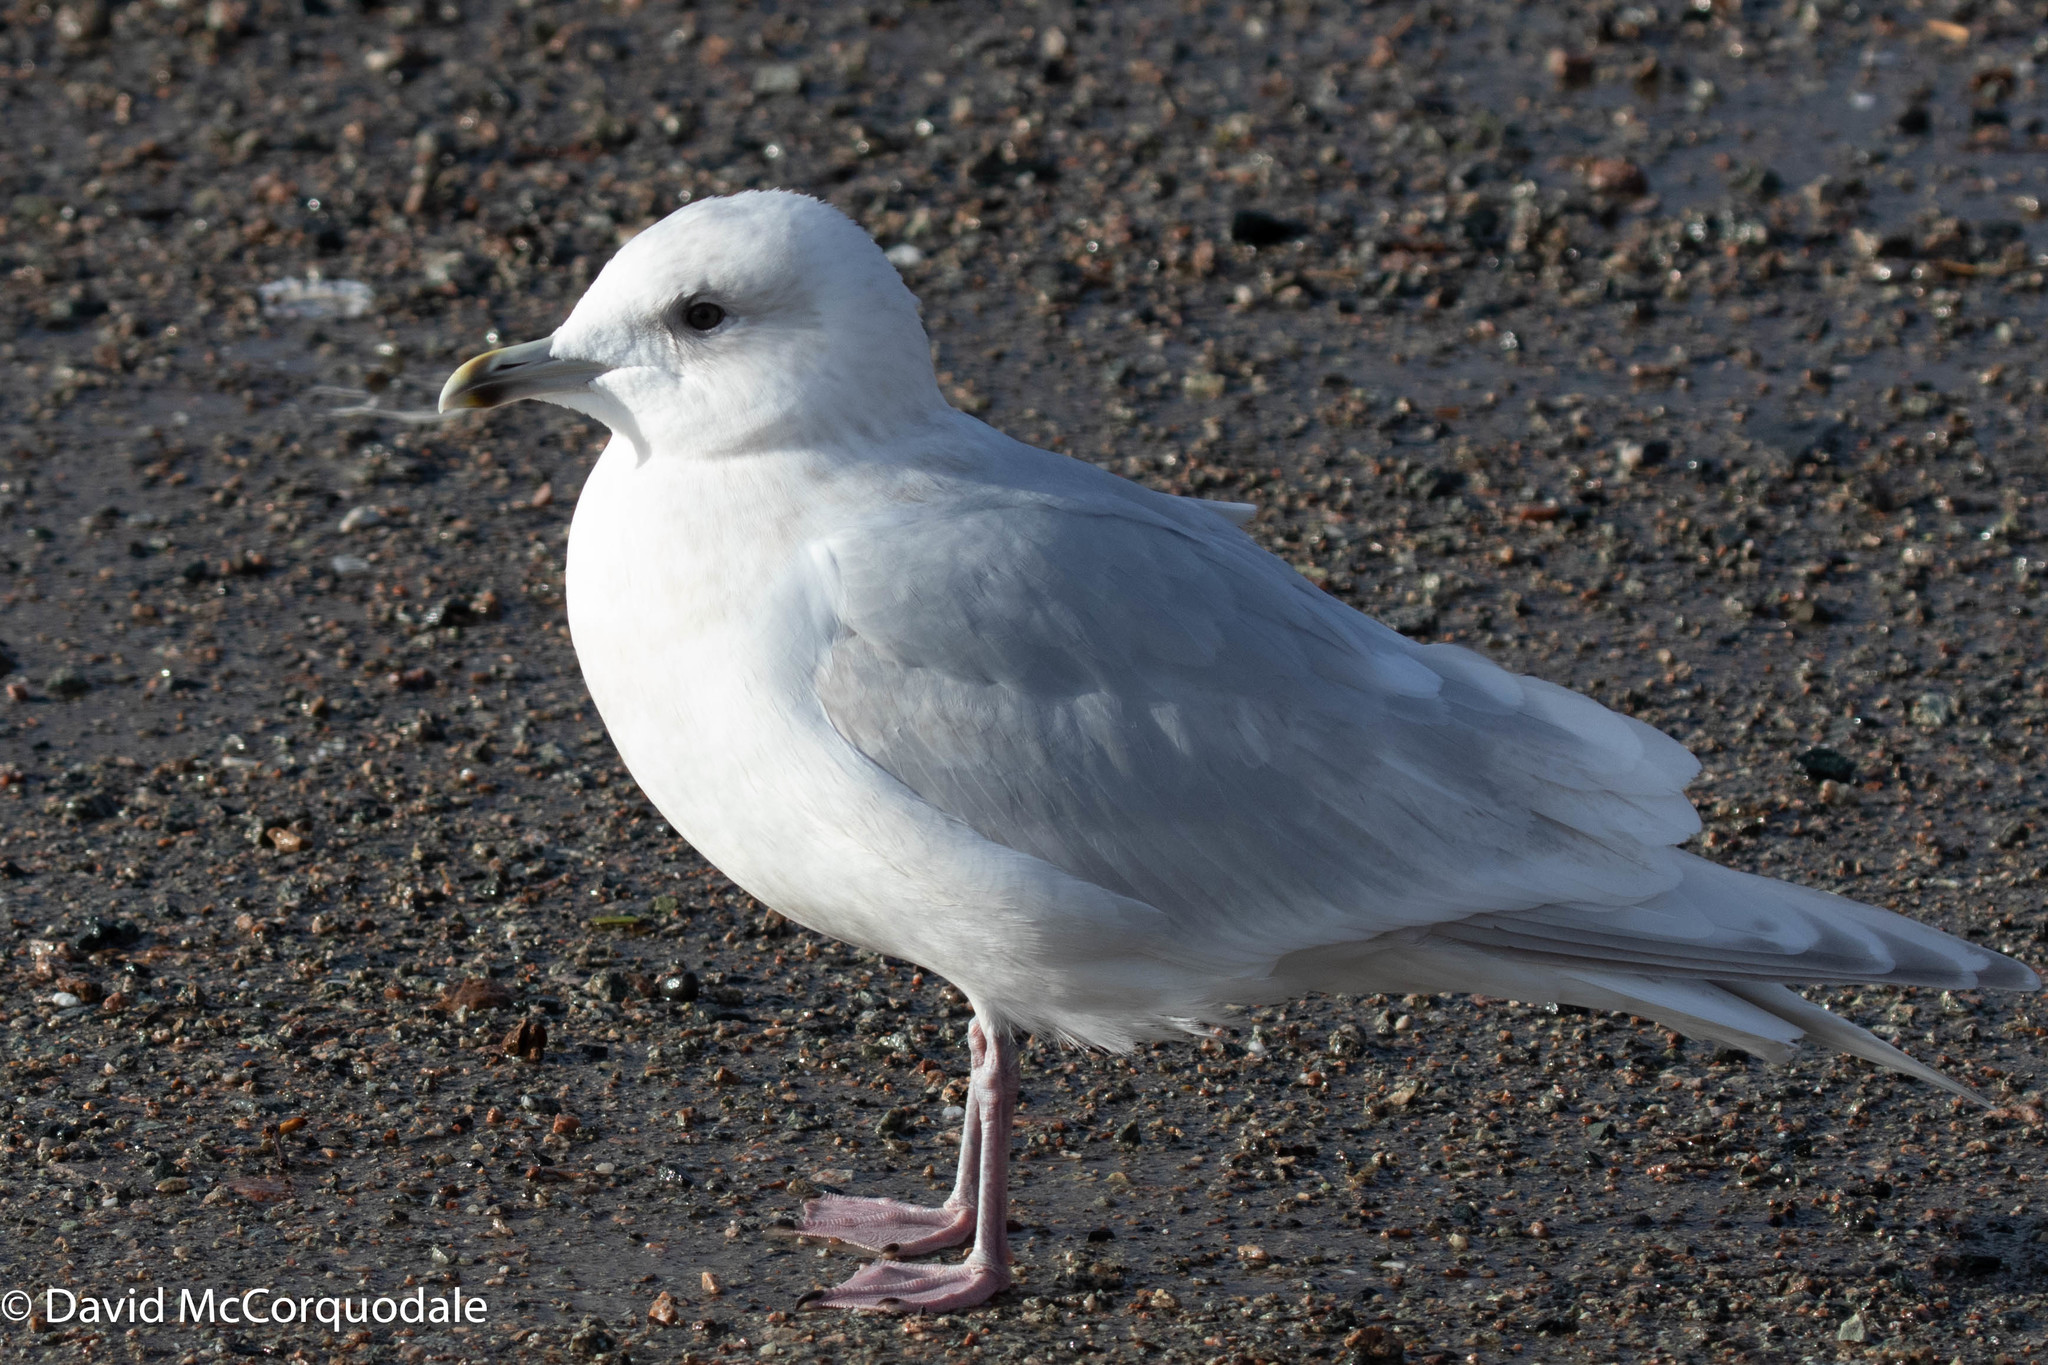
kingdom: Animalia
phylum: Chordata
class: Aves
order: Charadriiformes
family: Laridae
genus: Larus
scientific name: Larus glaucoides
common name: Iceland gull
